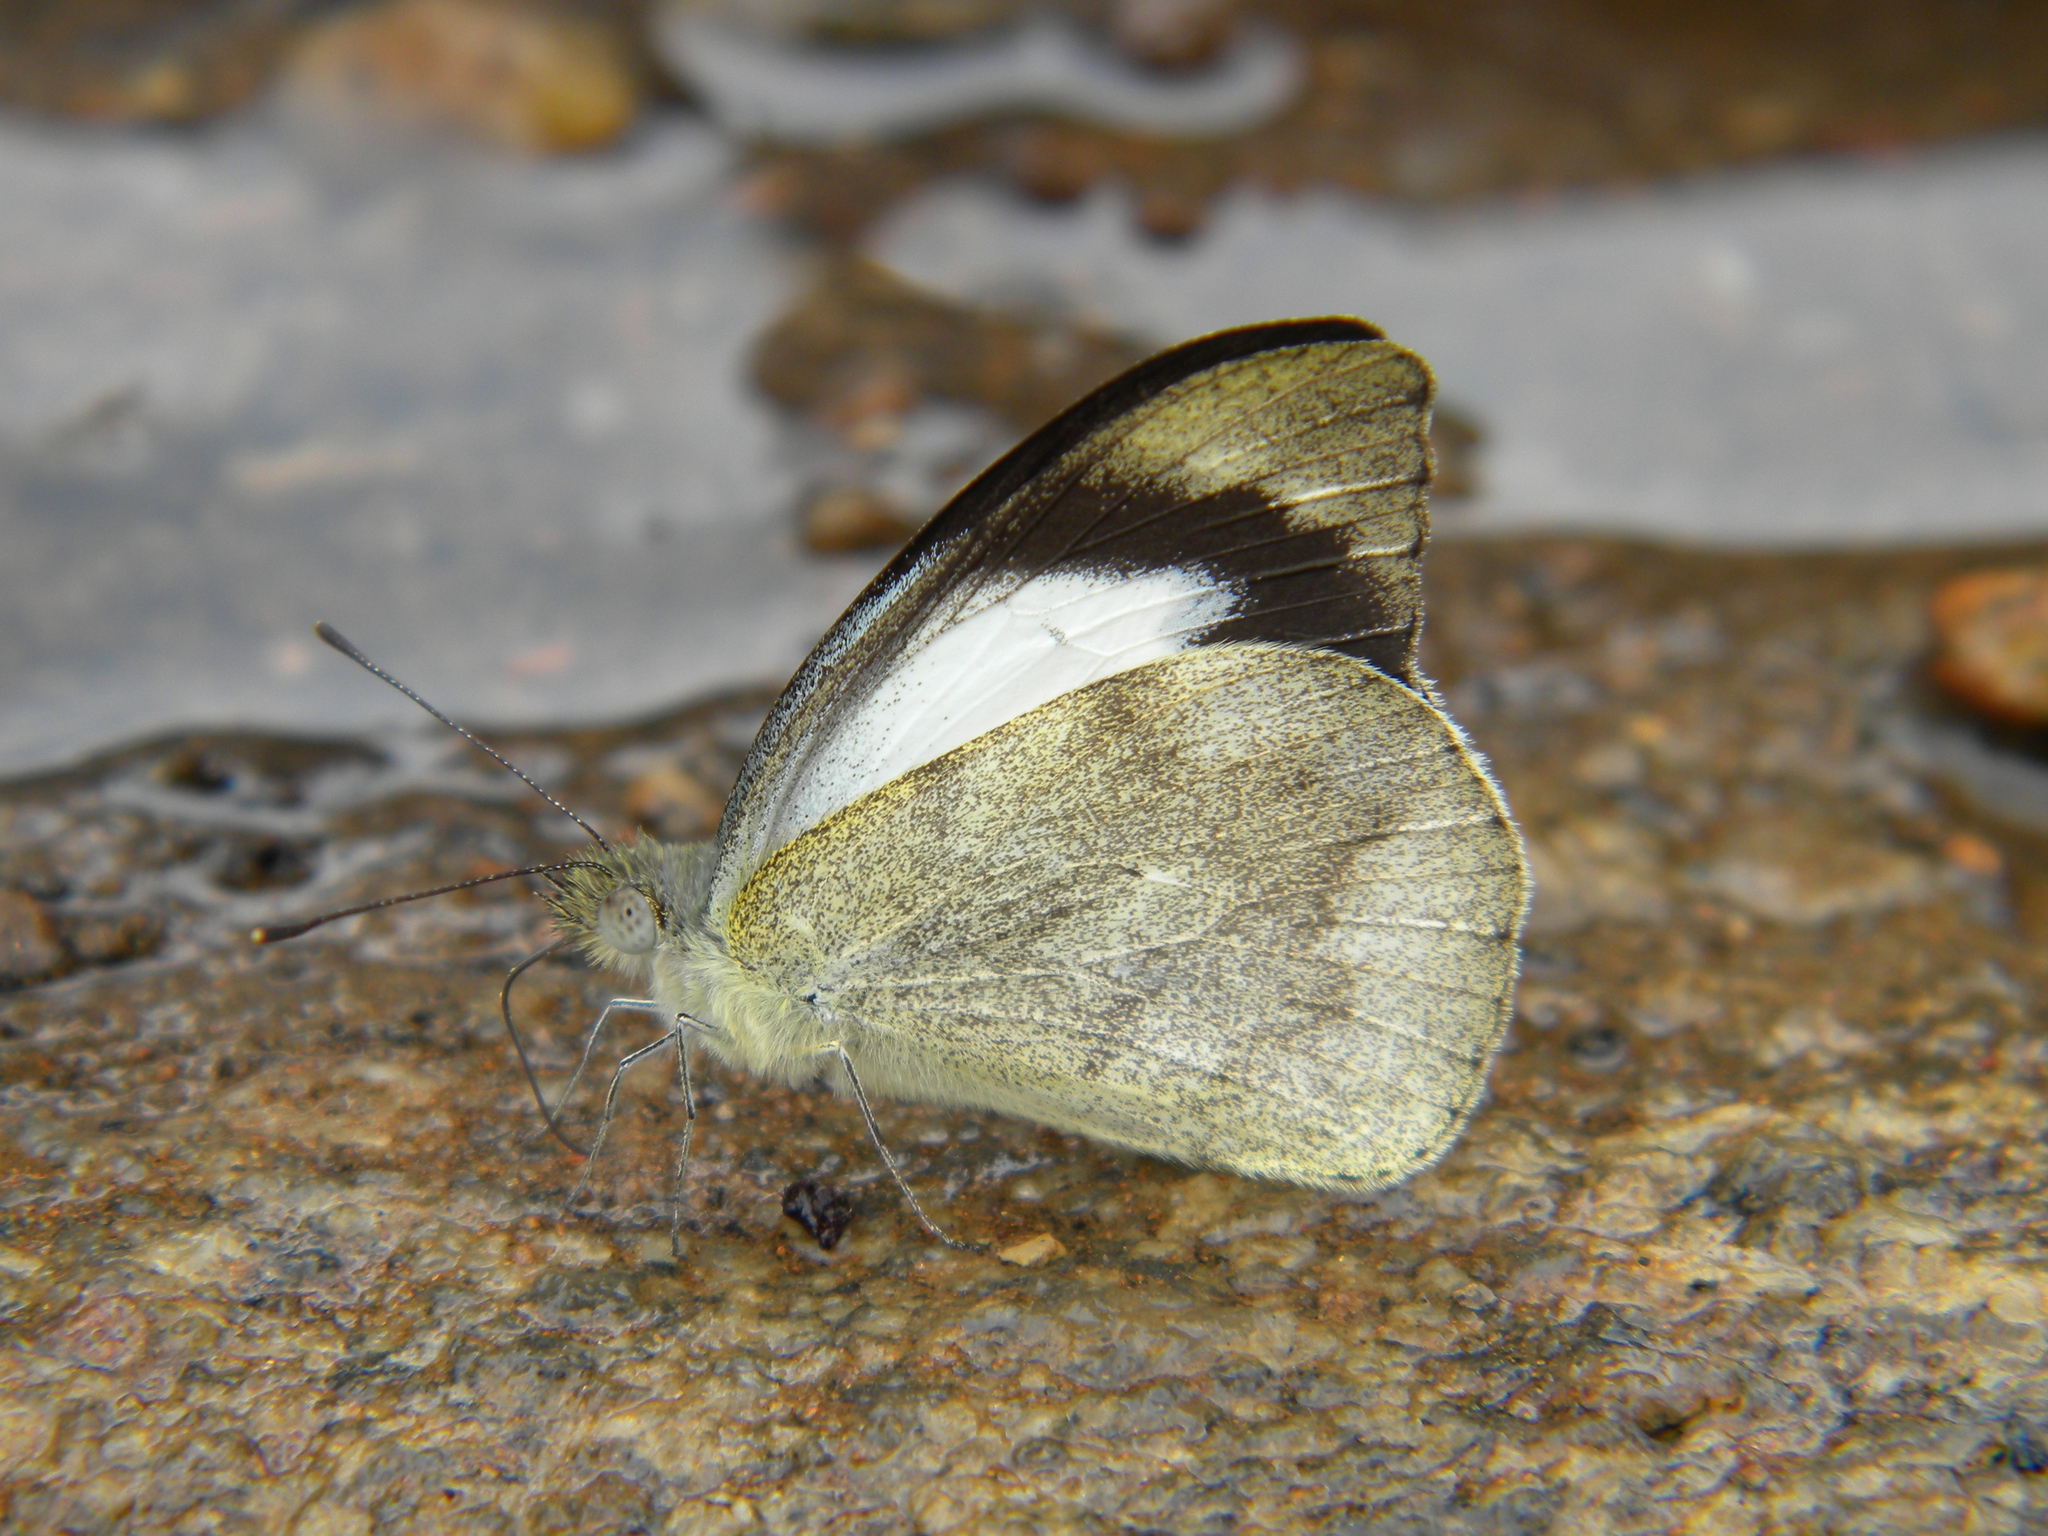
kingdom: Animalia
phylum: Arthropoda
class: Insecta
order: Lepidoptera
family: Pieridae
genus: Appias
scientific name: Appias indra
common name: Plain puffin
